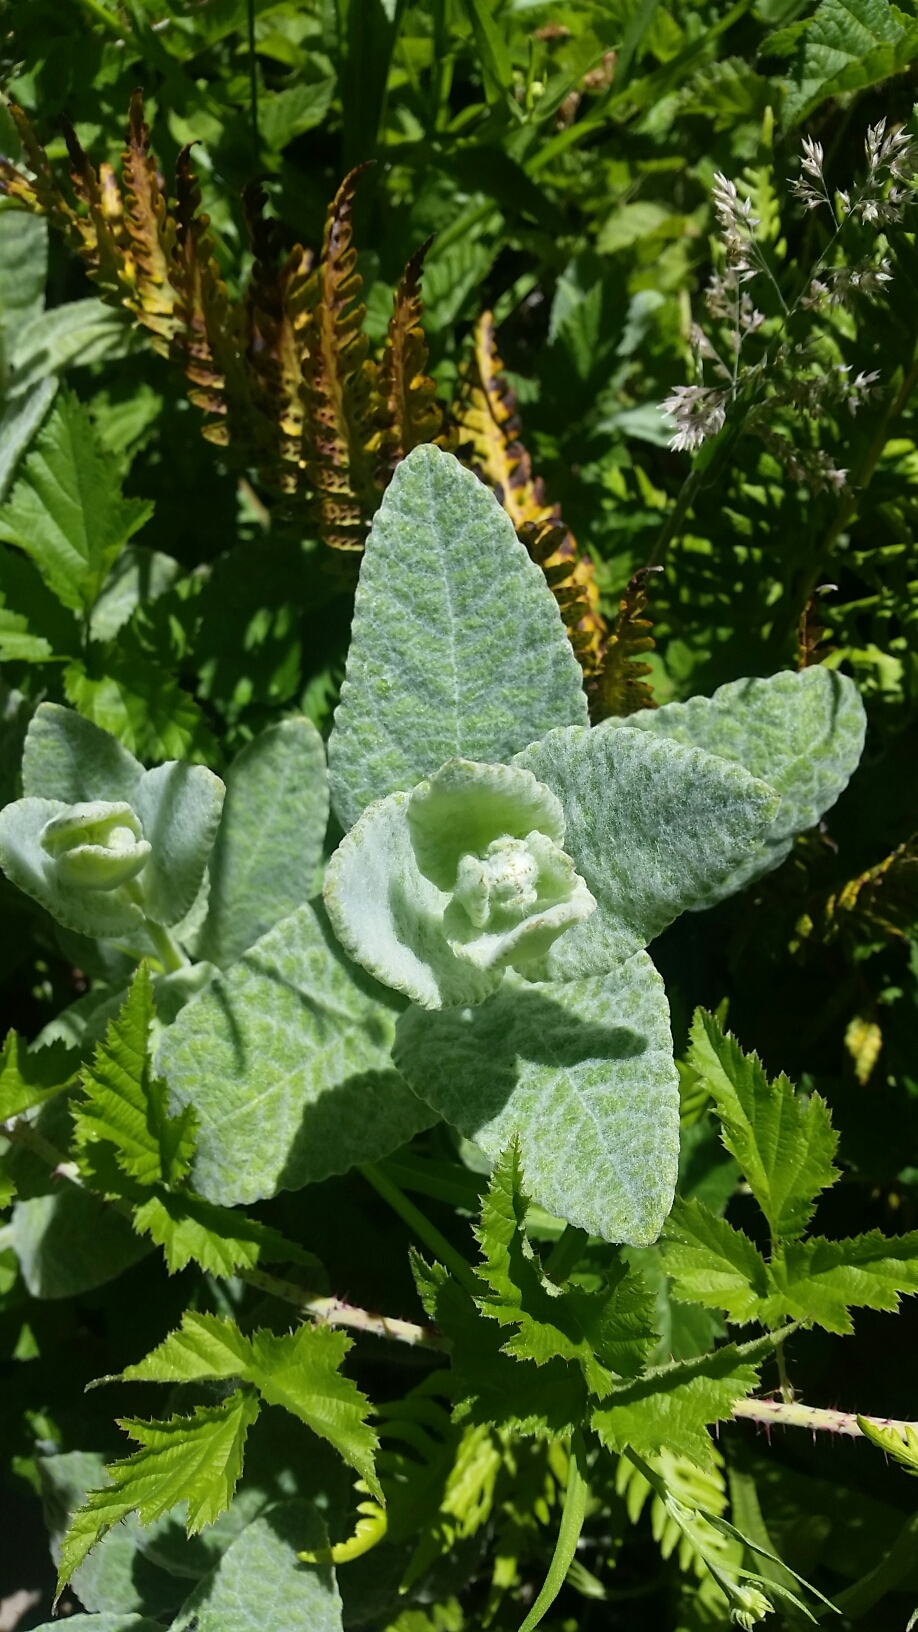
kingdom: Plantae
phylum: Tracheophyta
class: Magnoliopsida
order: Lamiales
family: Lamiaceae
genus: Stachys
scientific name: Stachys albens
